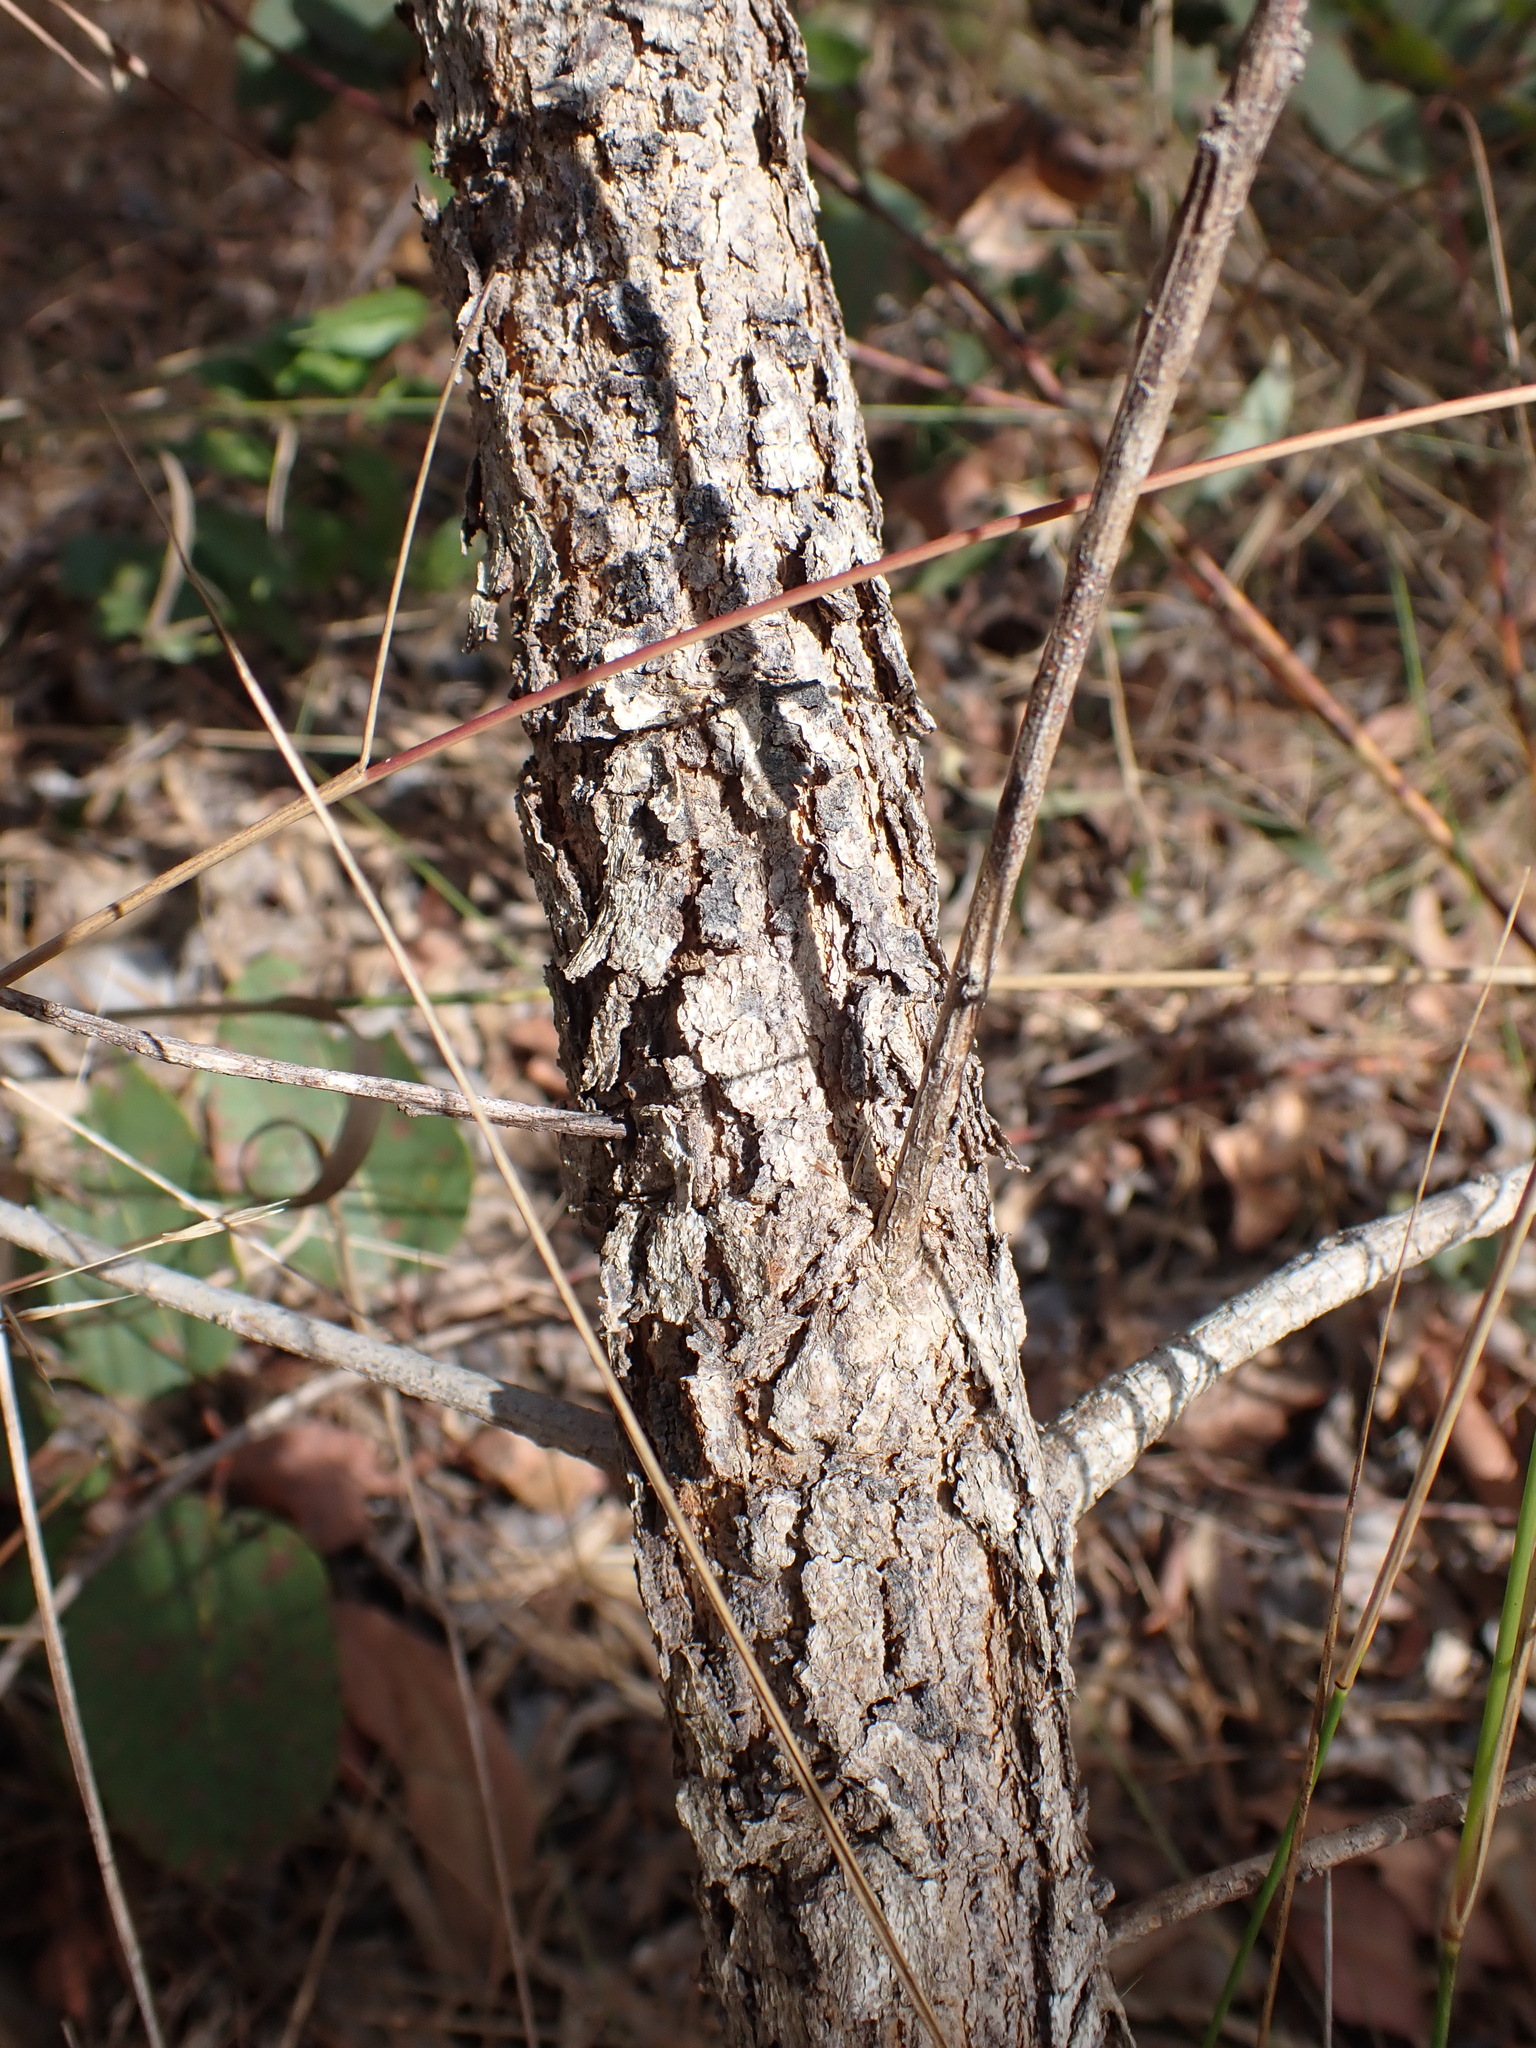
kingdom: Plantae
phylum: Tracheophyta
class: Magnoliopsida
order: Fabales
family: Fabaceae
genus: Acacia
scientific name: Acacia oncinocarpa
